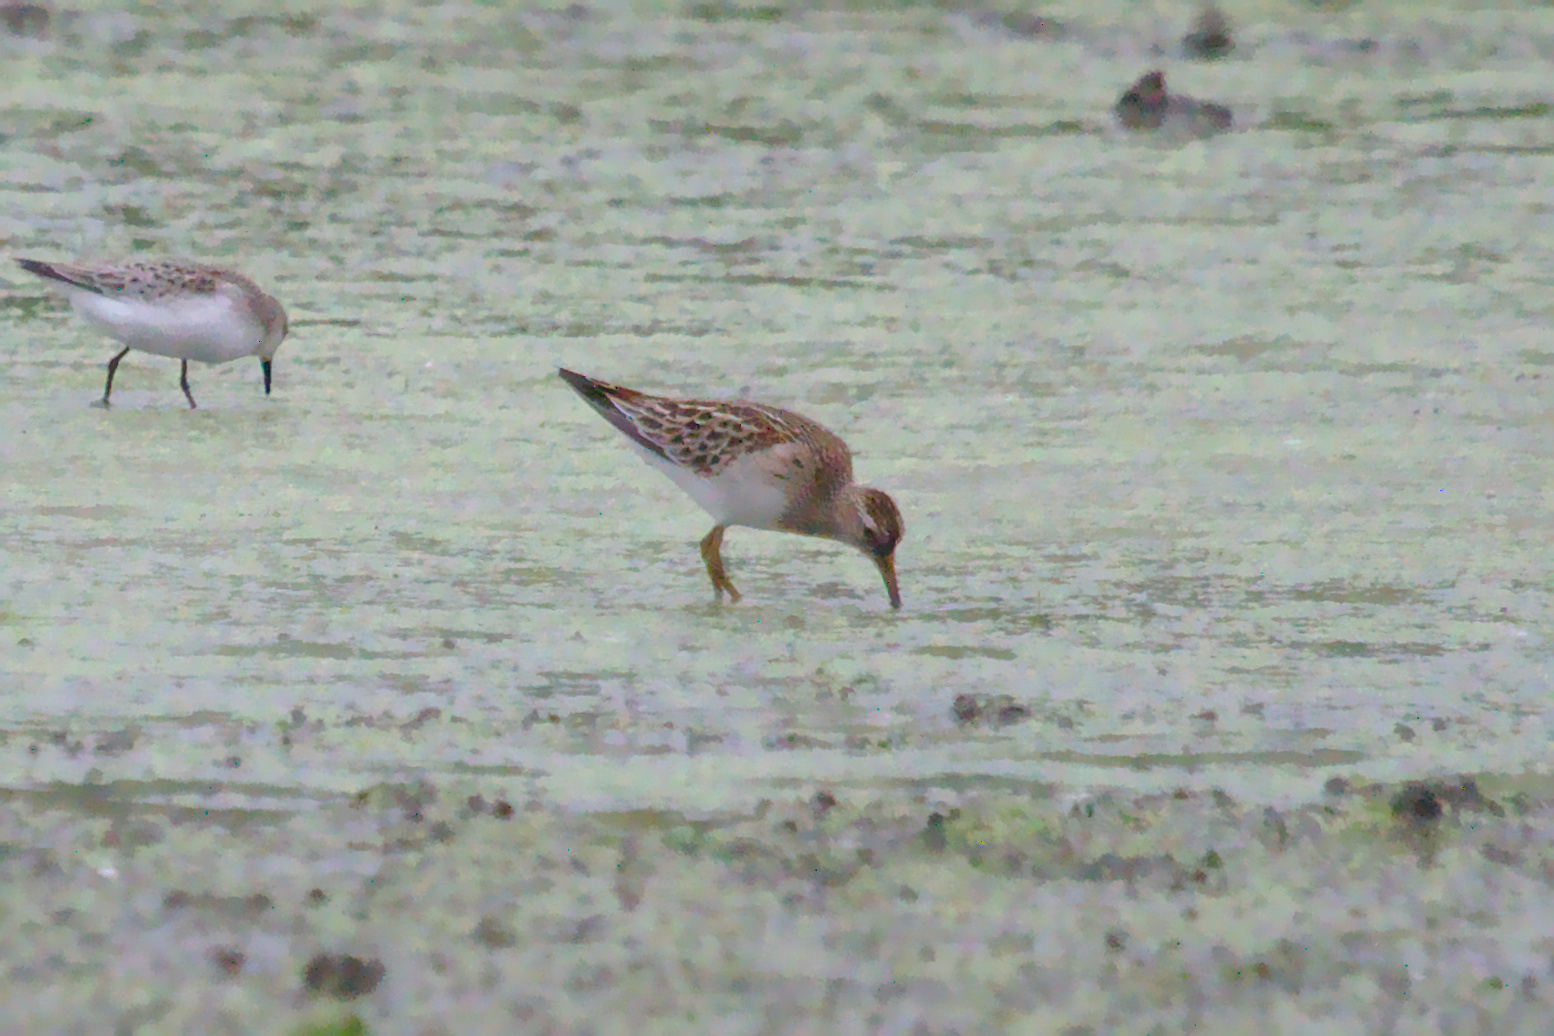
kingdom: Animalia
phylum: Chordata
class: Aves
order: Charadriiformes
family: Scolopacidae
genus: Calidris
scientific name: Calidris melanotos
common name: Pectoral sandpiper
